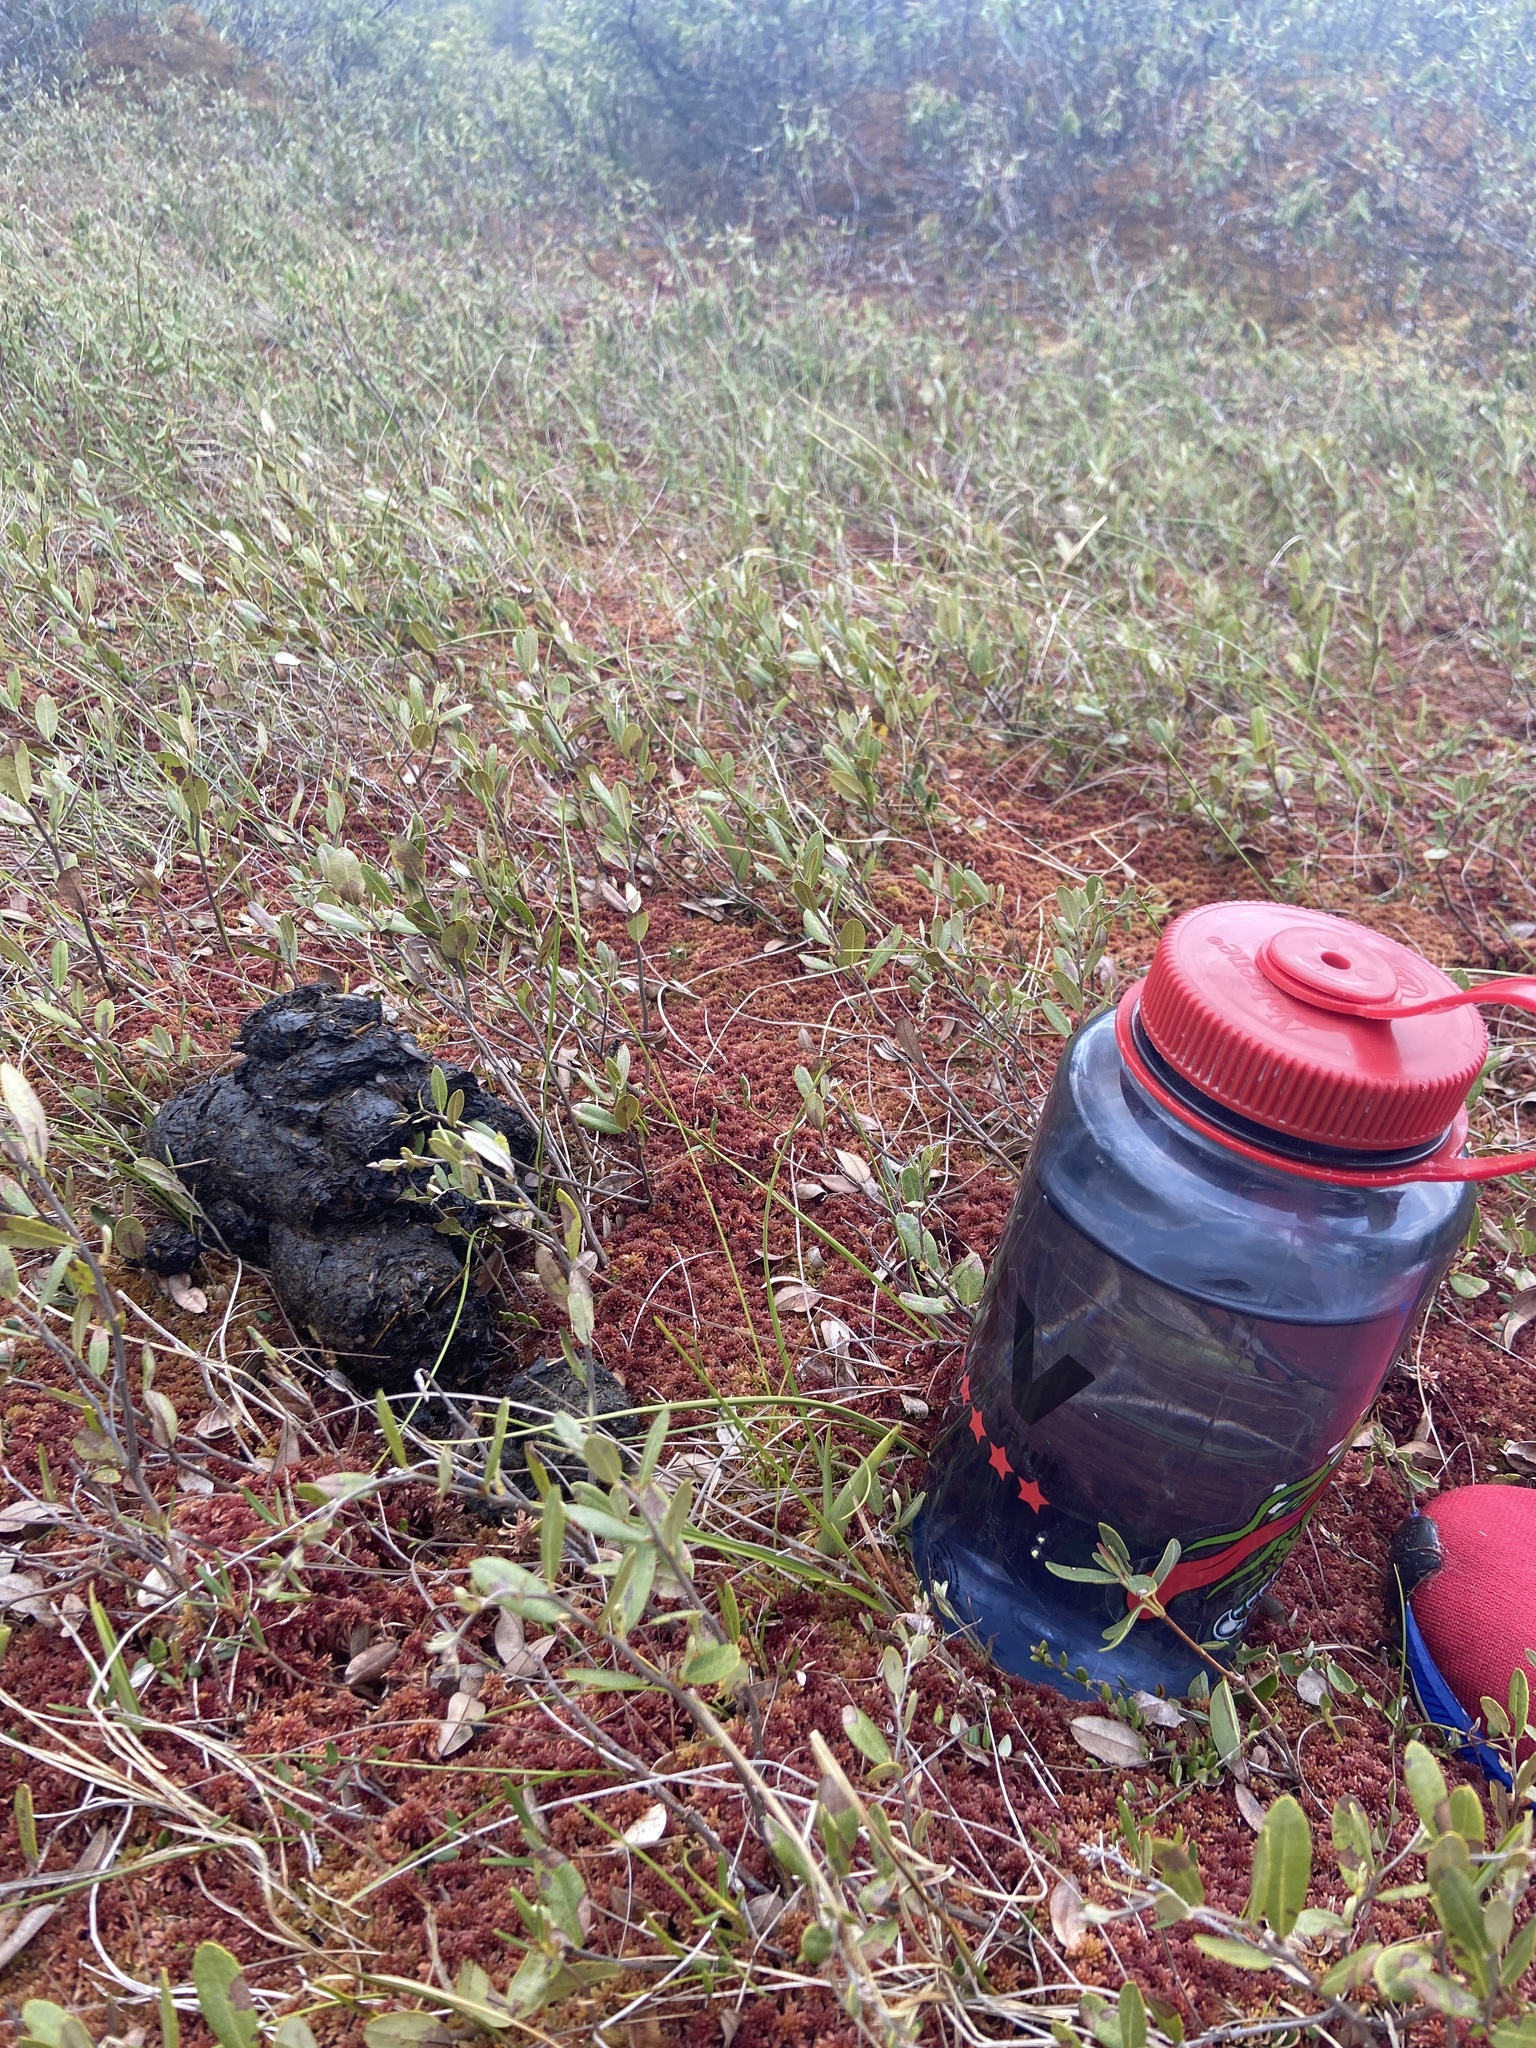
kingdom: Animalia
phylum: Chordata
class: Mammalia
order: Carnivora
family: Ursidae
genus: Ursus
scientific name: Ursus americanus
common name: American black bear
